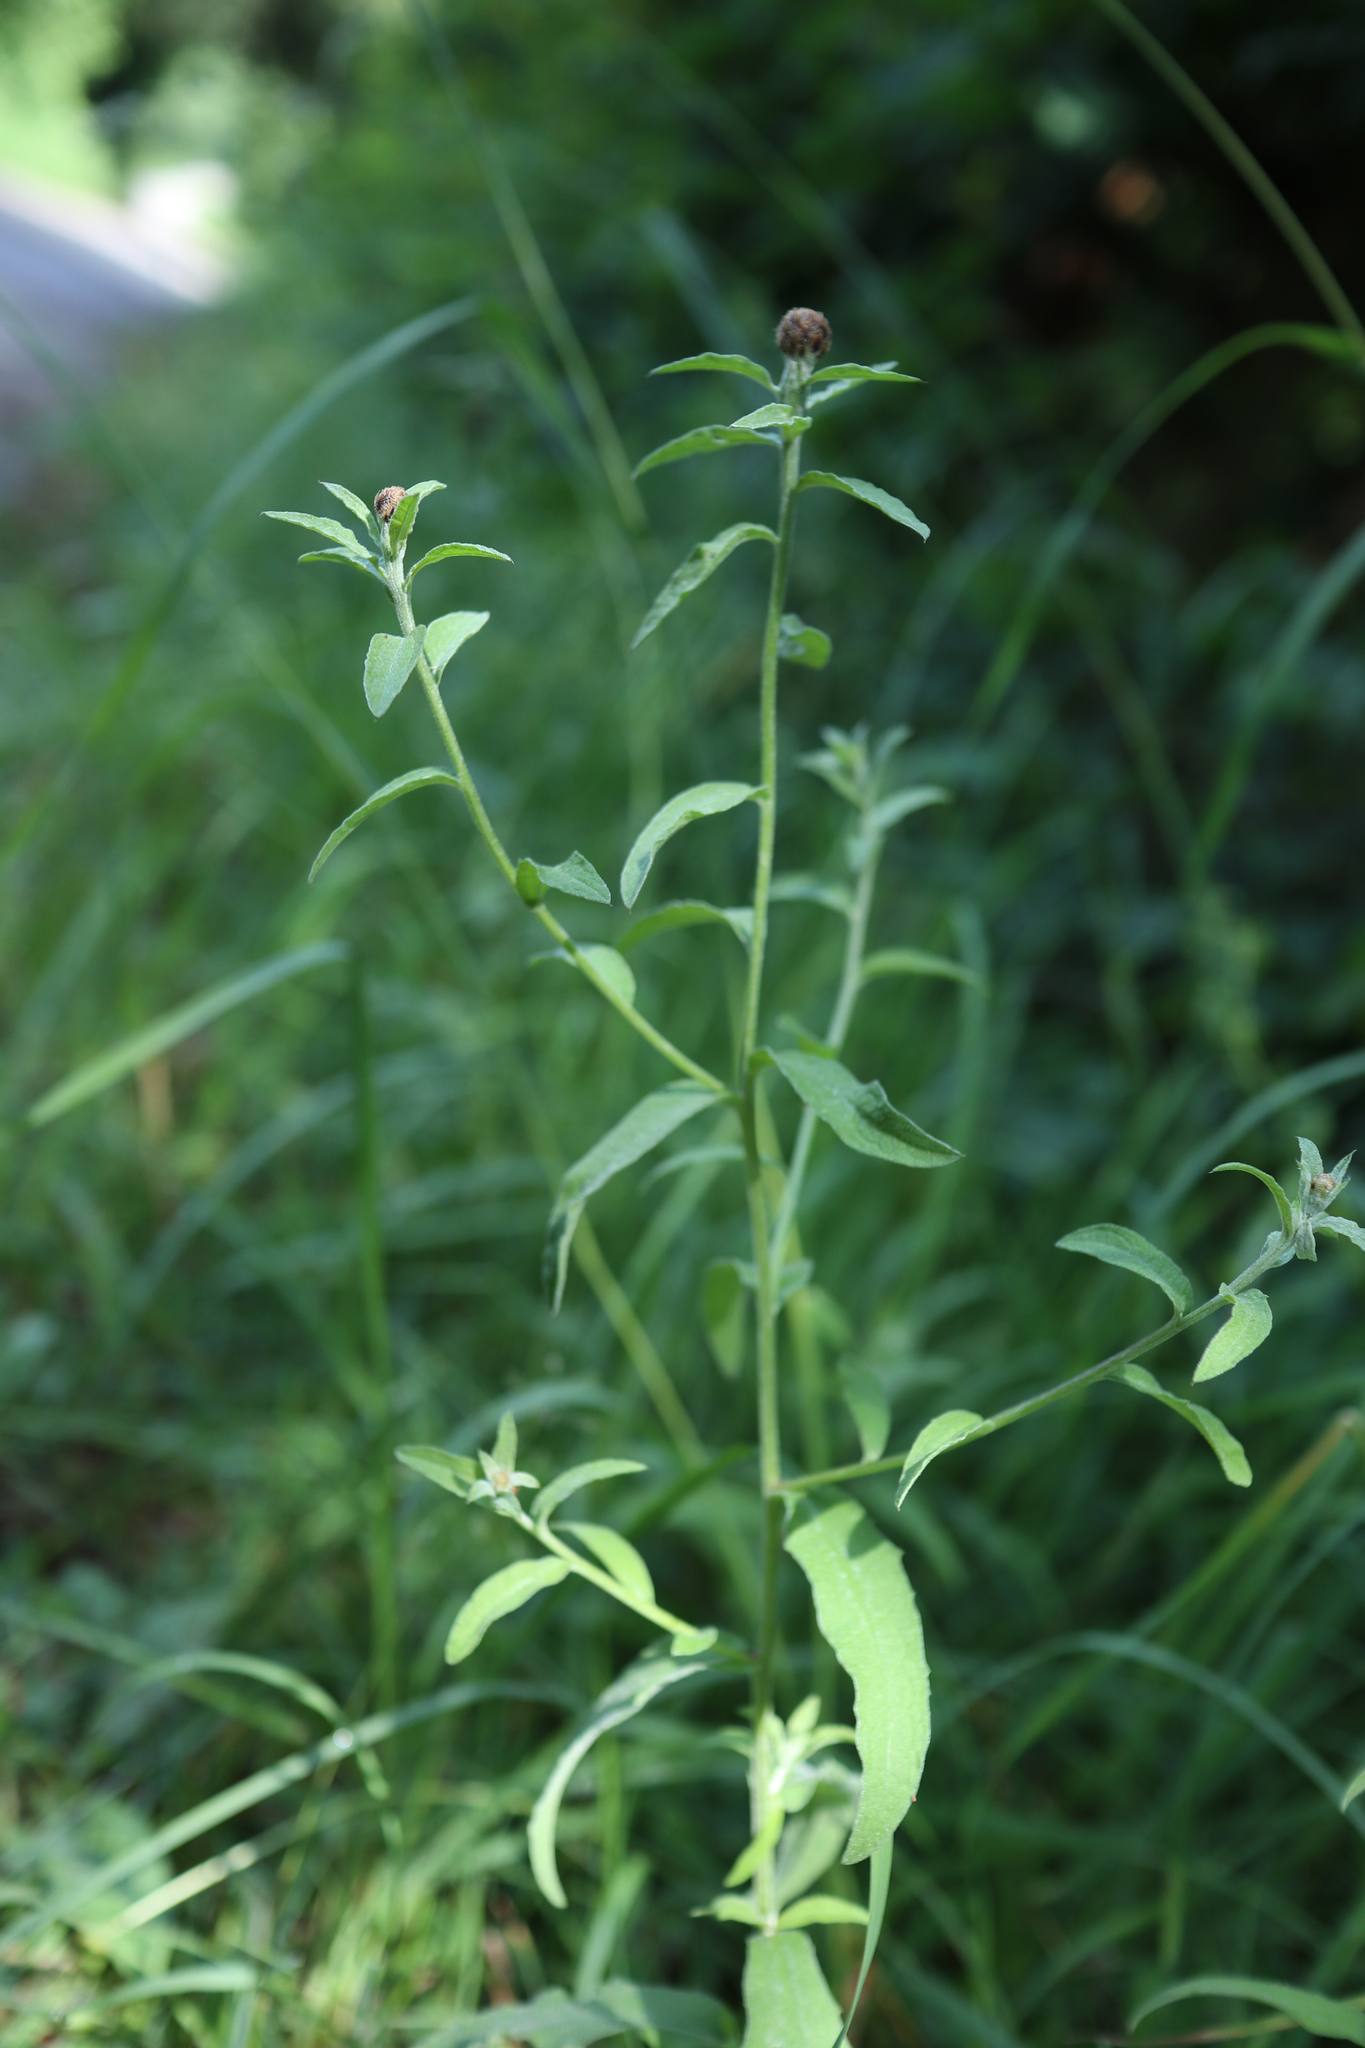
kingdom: Plantae
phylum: Tracheophyta
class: Magnoliopsida
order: Lamiales
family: Lamiaceae
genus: Betonica
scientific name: Betonica officinalis
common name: Bishop's-wort
